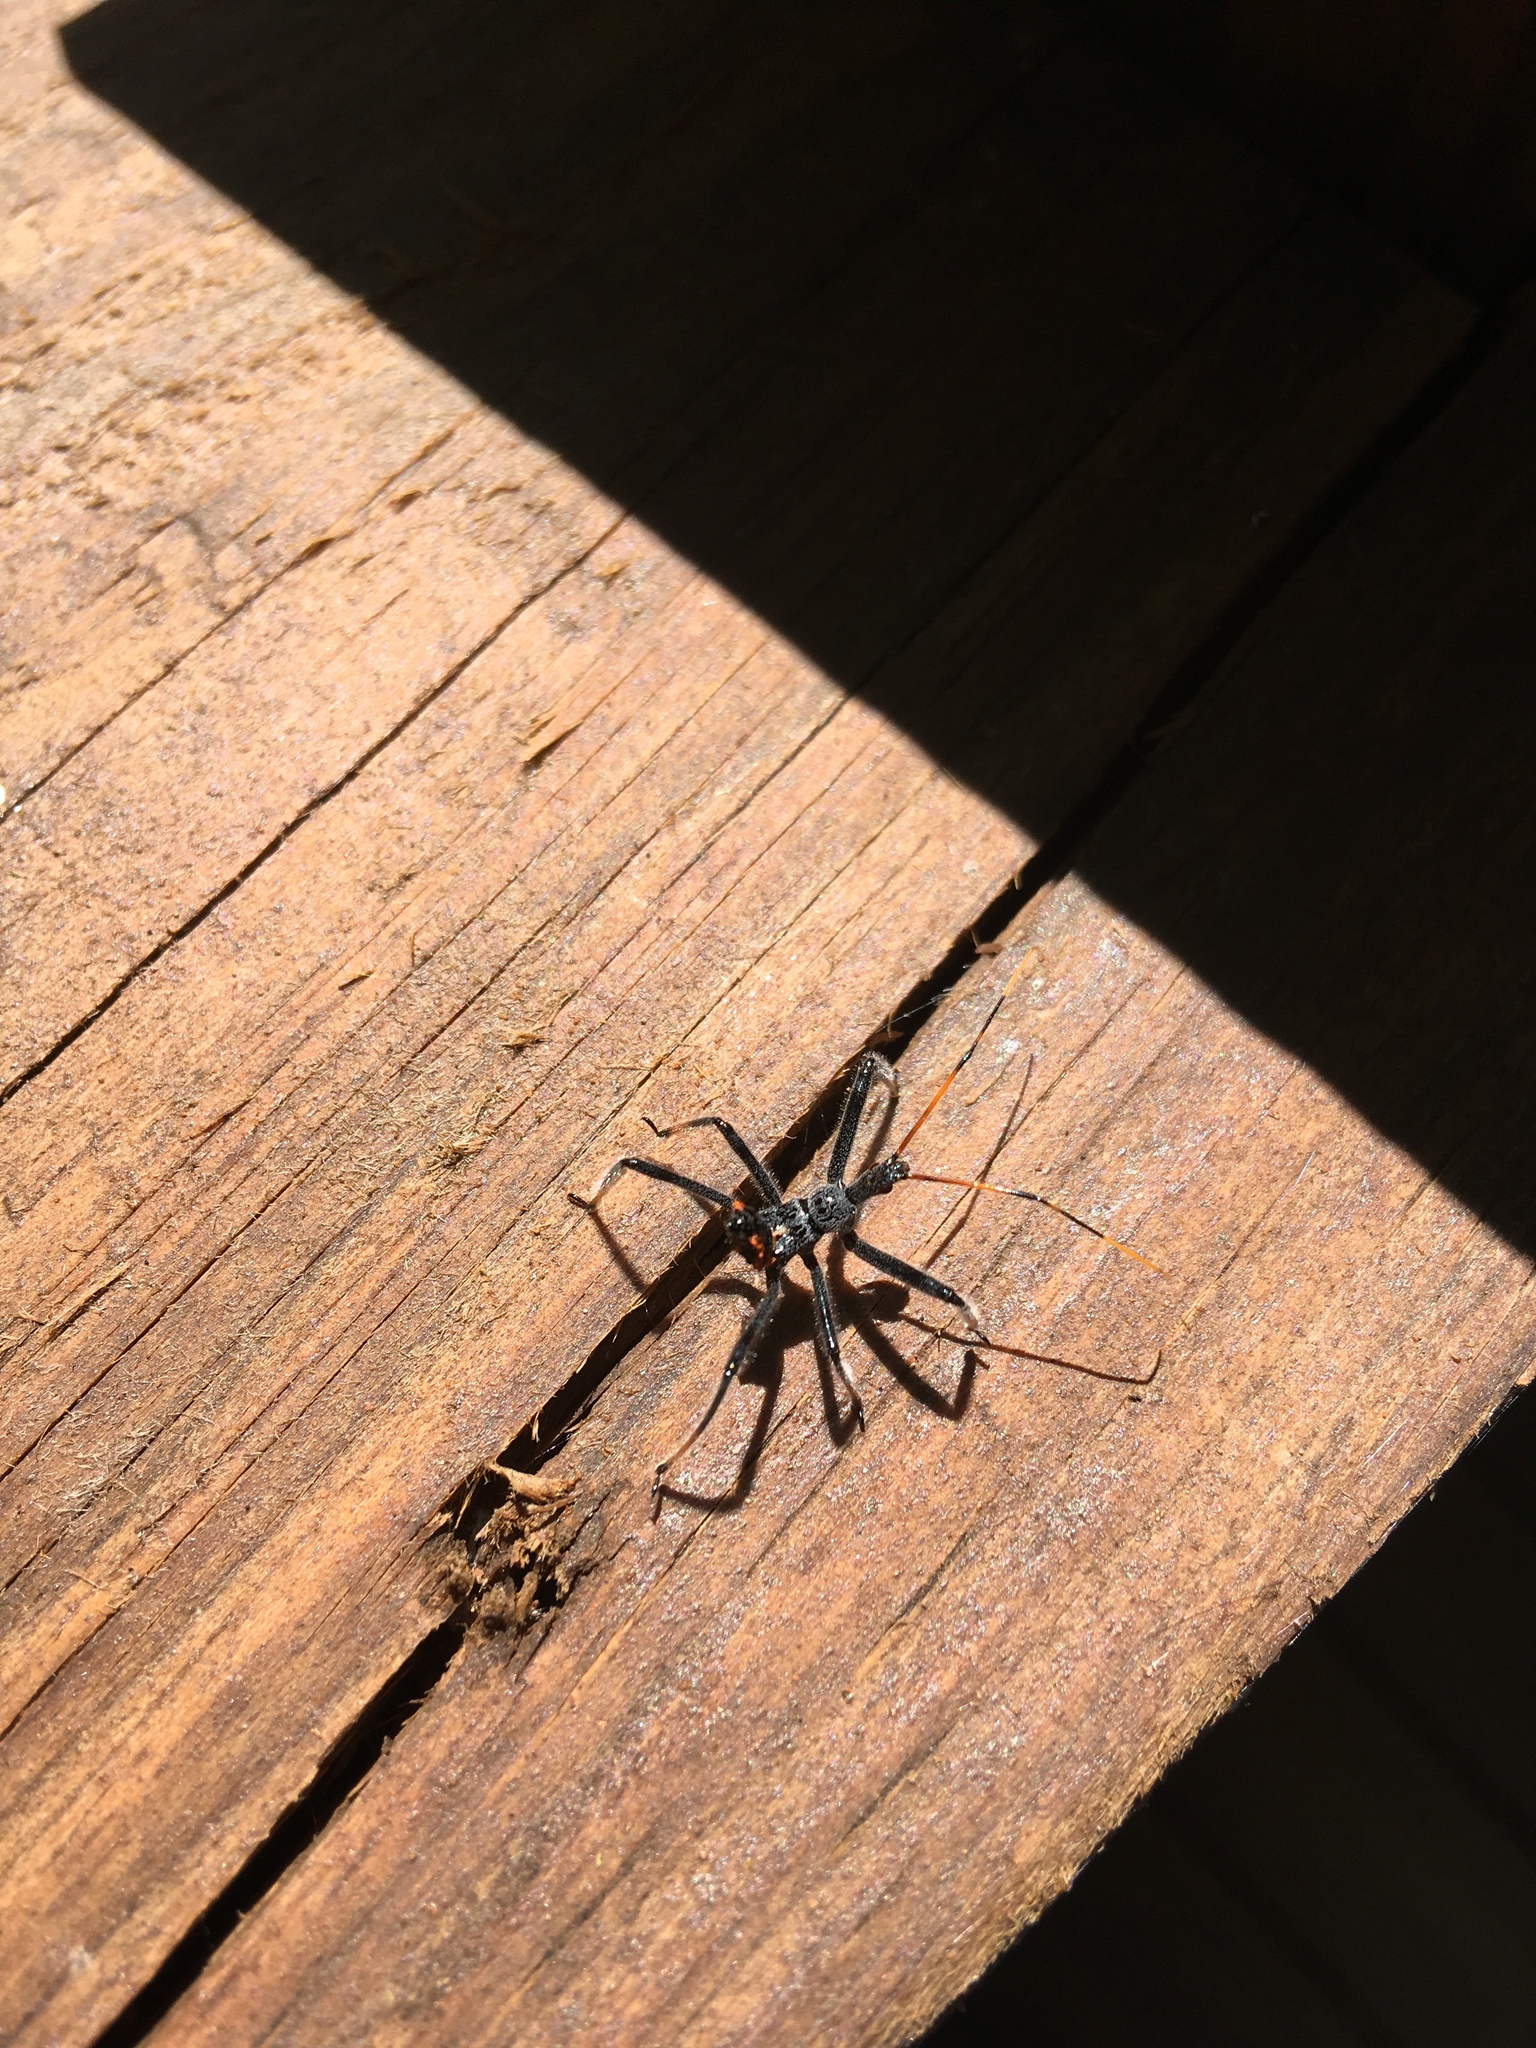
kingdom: Animalia
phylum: Arthropoda
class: Insecta
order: Hemiptera
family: Reduviidae
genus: Arilus
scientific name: Arilus cristatus
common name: North american wheel bug
